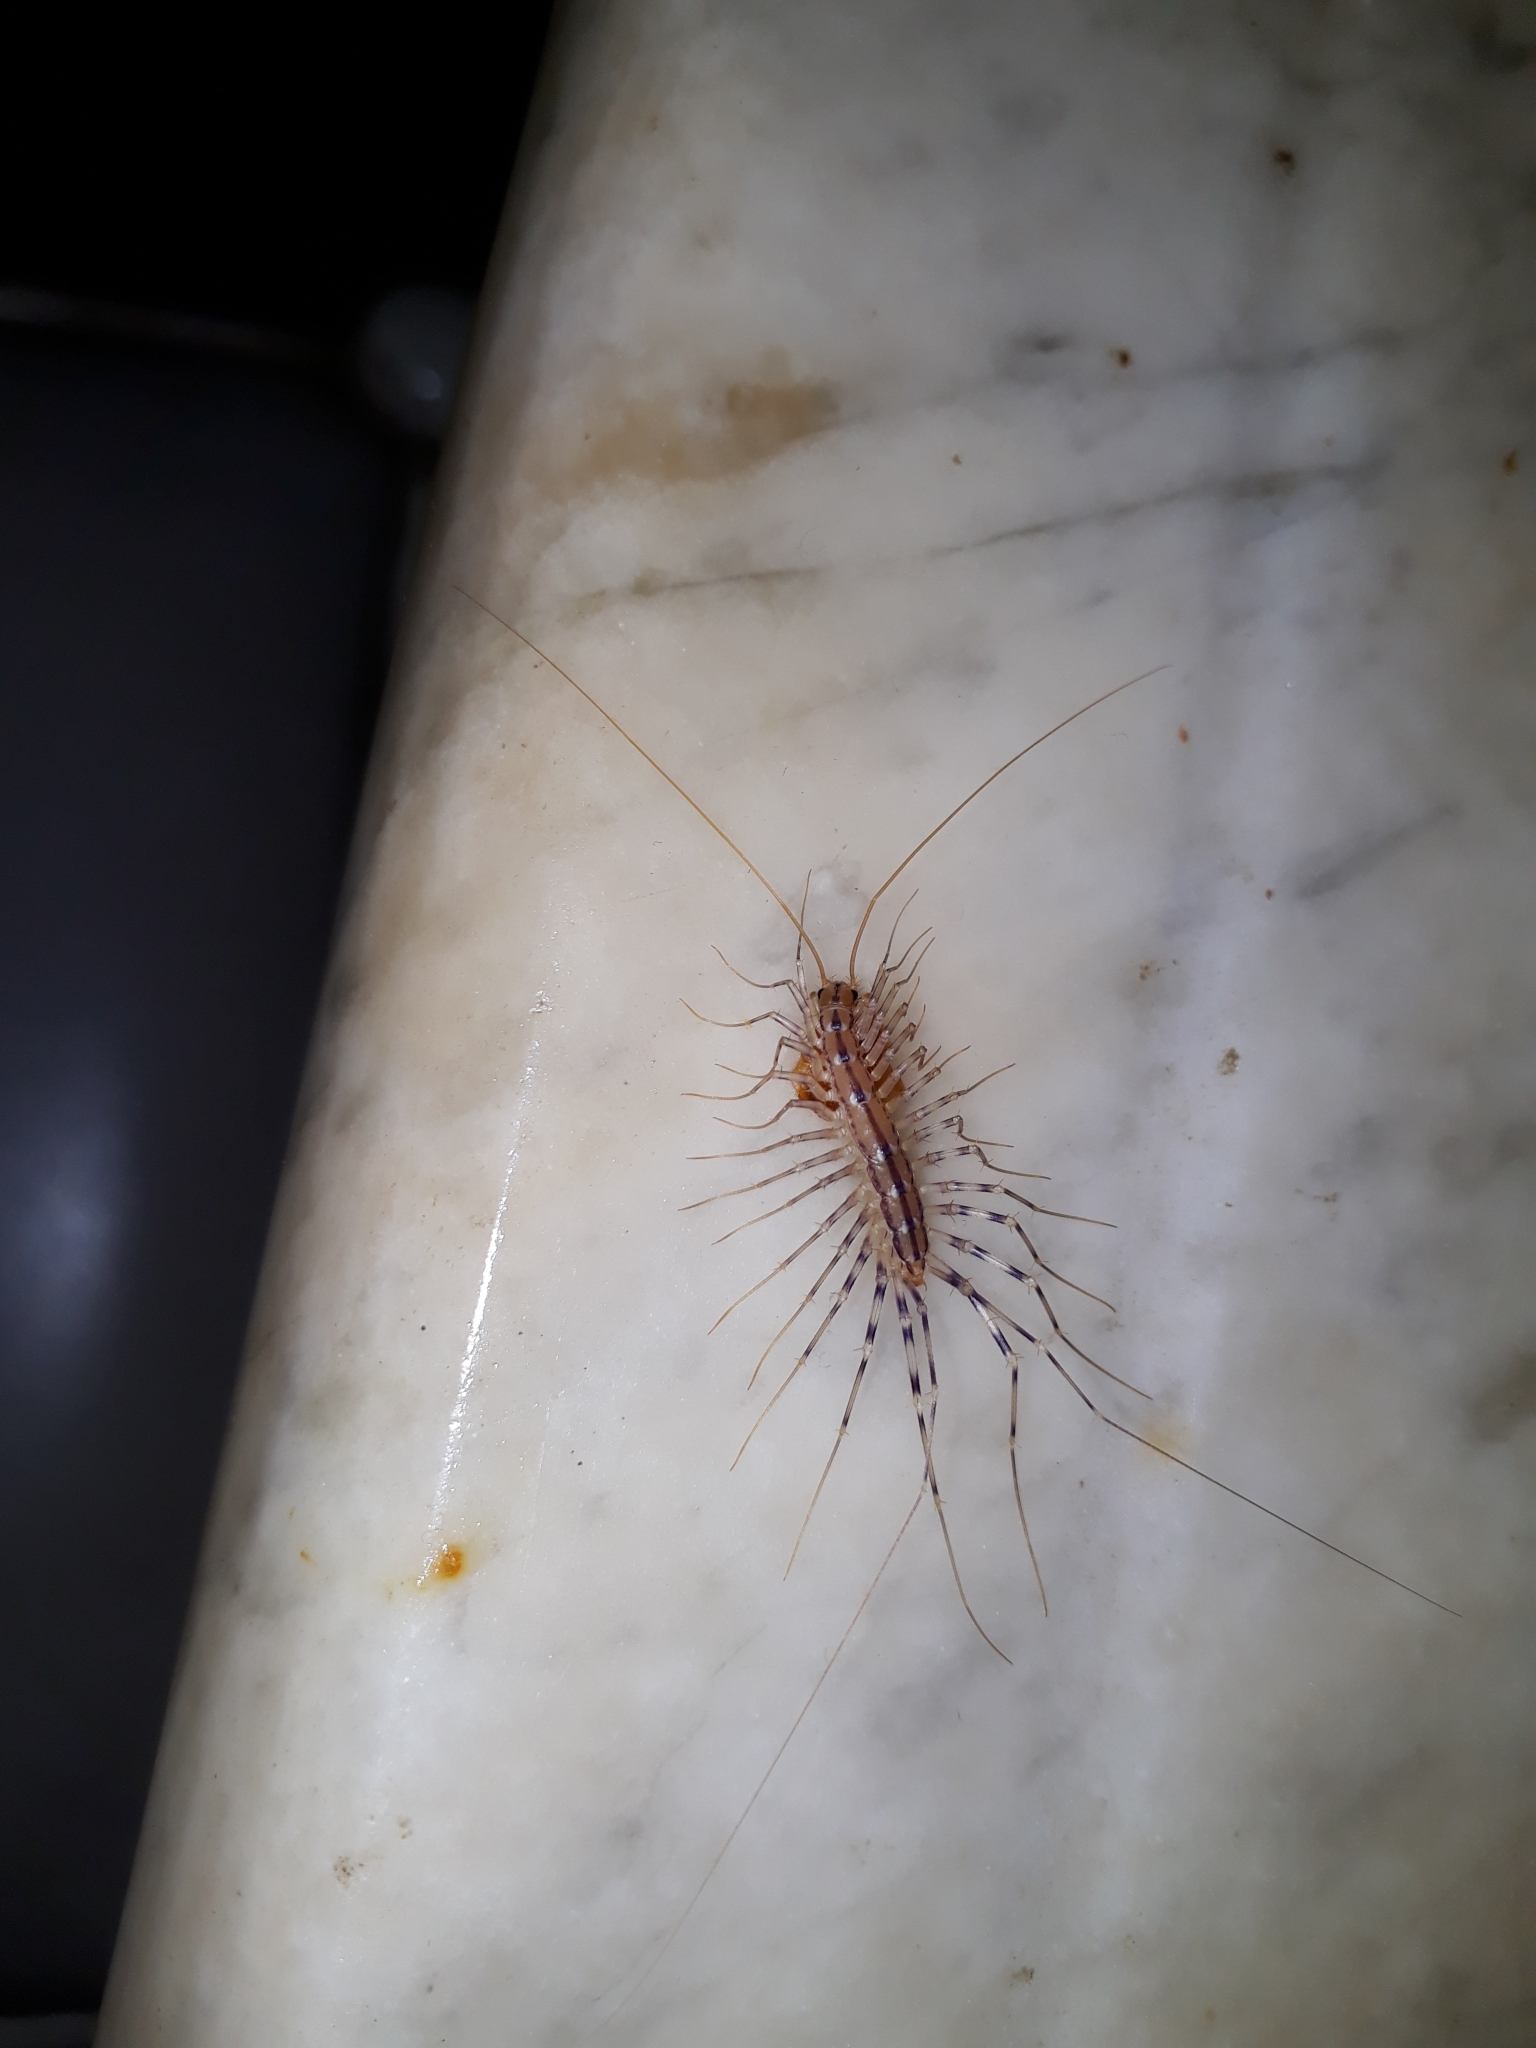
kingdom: Animalia
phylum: Arthropoda
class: Chilopoda
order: Scutigeromorpha
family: Scutigeridae
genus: Scutigera
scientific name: Scutigera coleoptrata
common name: House centipede
